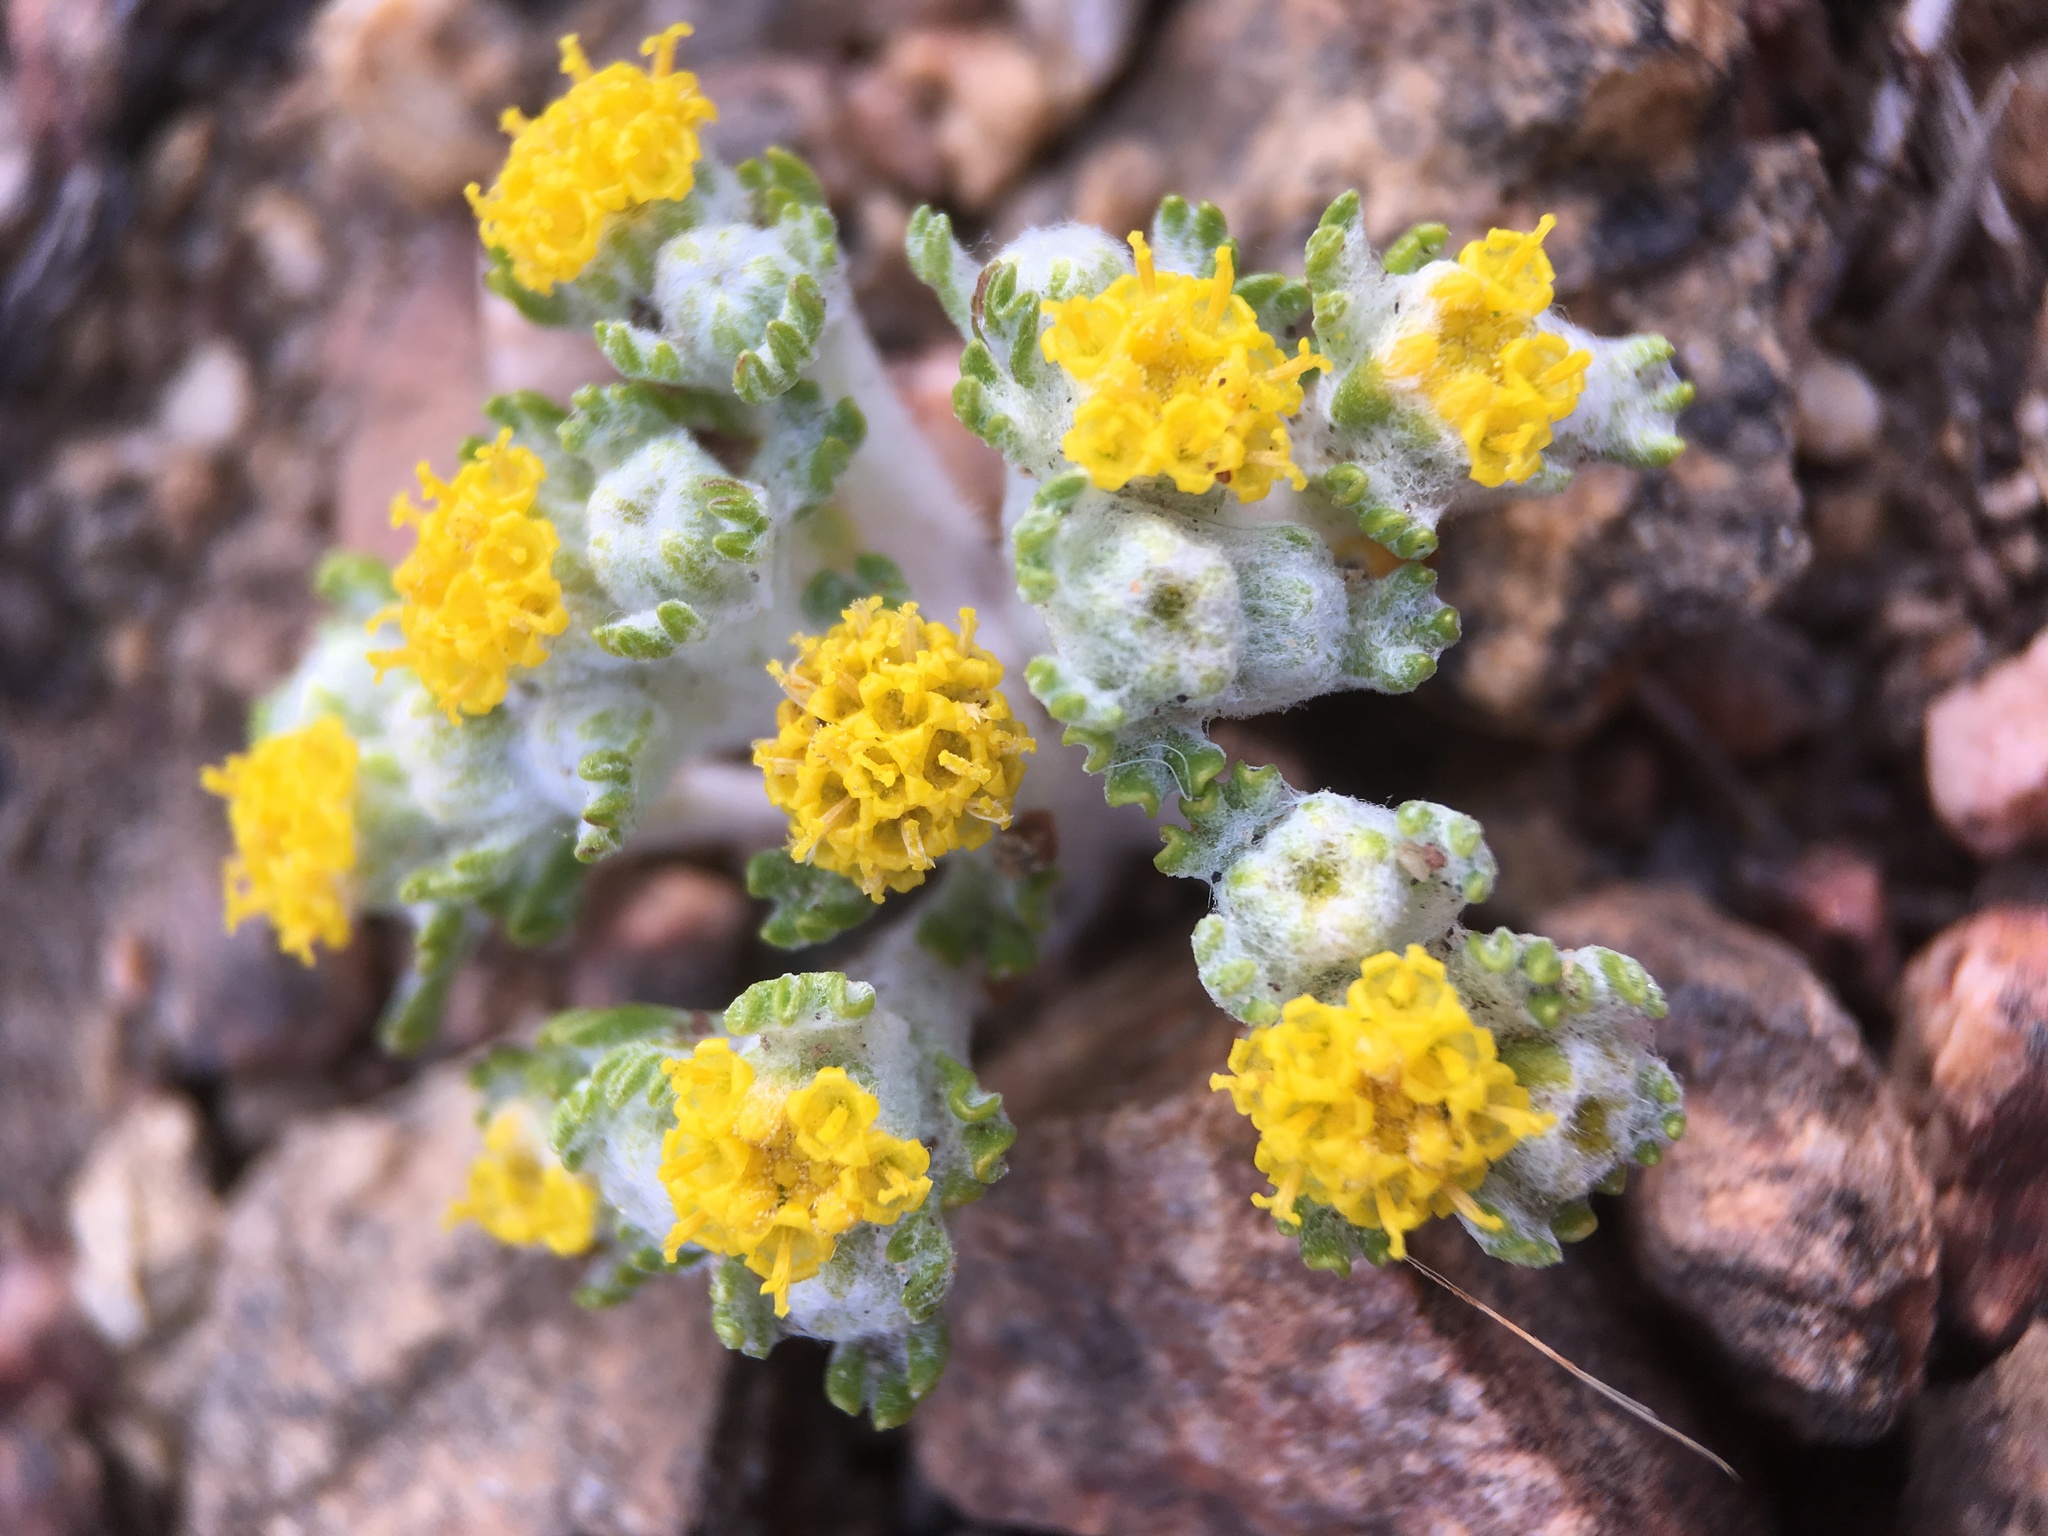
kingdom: Plantae
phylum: Tracheophyta
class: Magnoliopsida
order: Asterales
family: Asteraceae
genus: Eriophyllum
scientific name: Eriophyllum pringlei
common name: Pringle's woolly-sunflower
